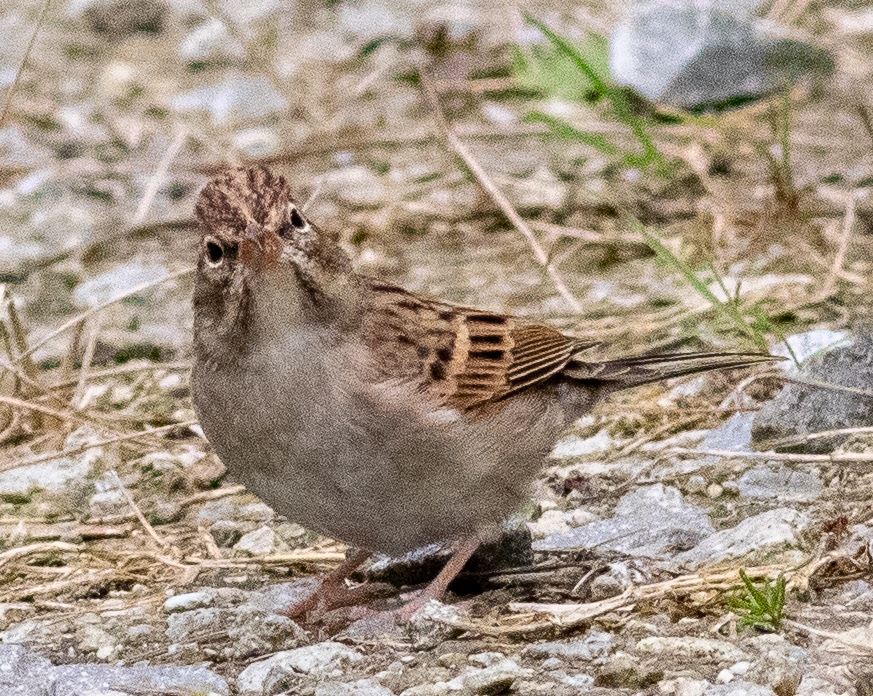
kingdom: Animalia
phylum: Chordata
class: Aves
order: Passeriformes
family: Passerellidae
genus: Spizella
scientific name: Spizella passerina
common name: Chipping sparrow
